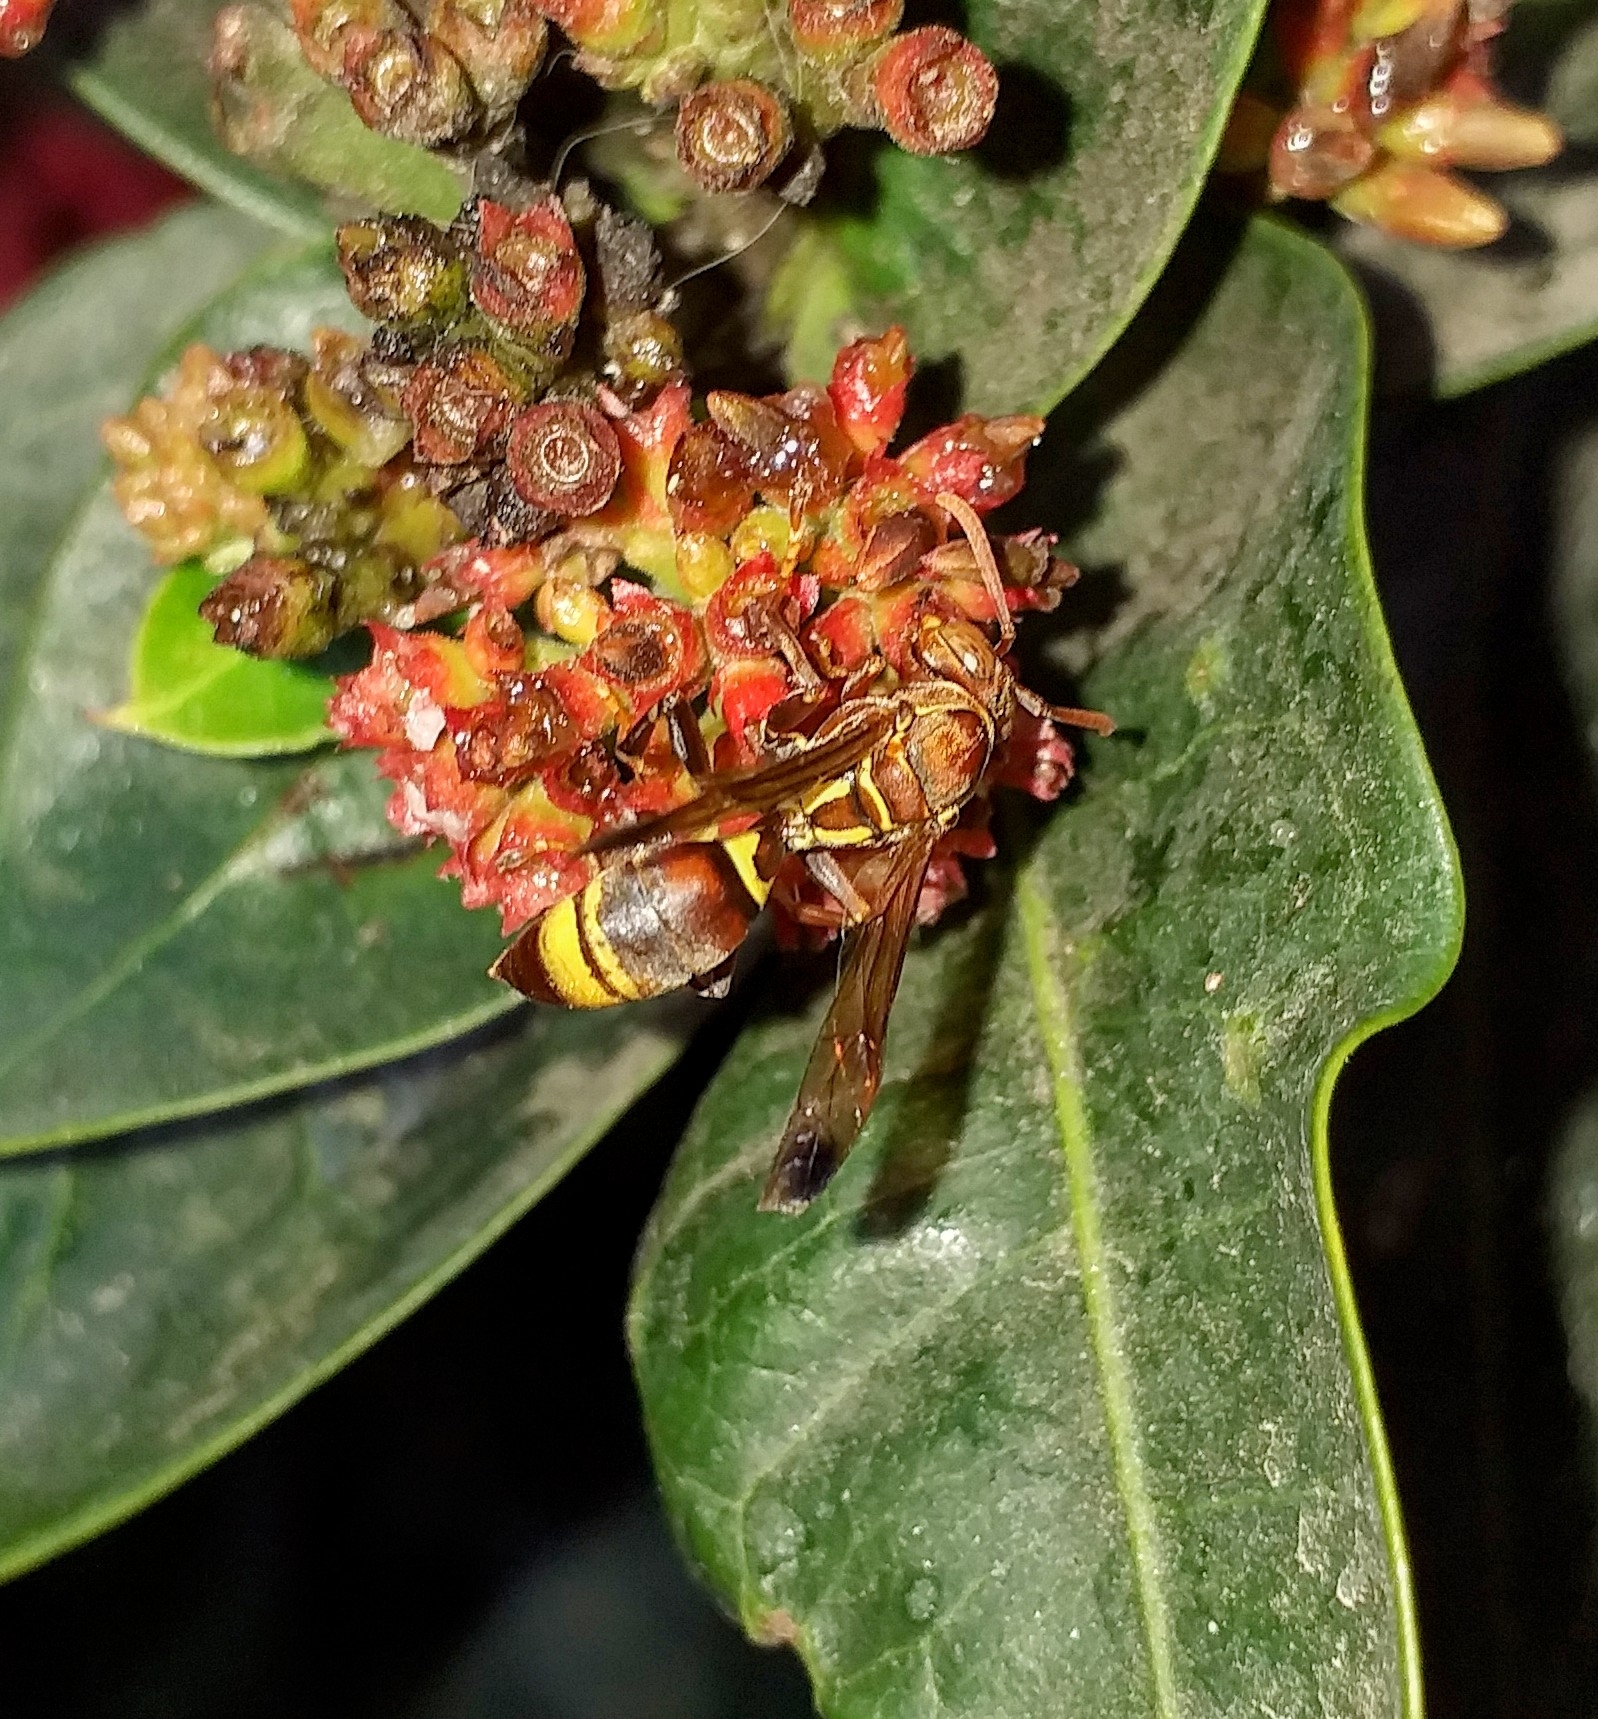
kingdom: Animalia
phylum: Arthropoda
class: Insecta
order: Hymenoptera
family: Eumenidae
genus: Polistes
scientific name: Polistes stigma
